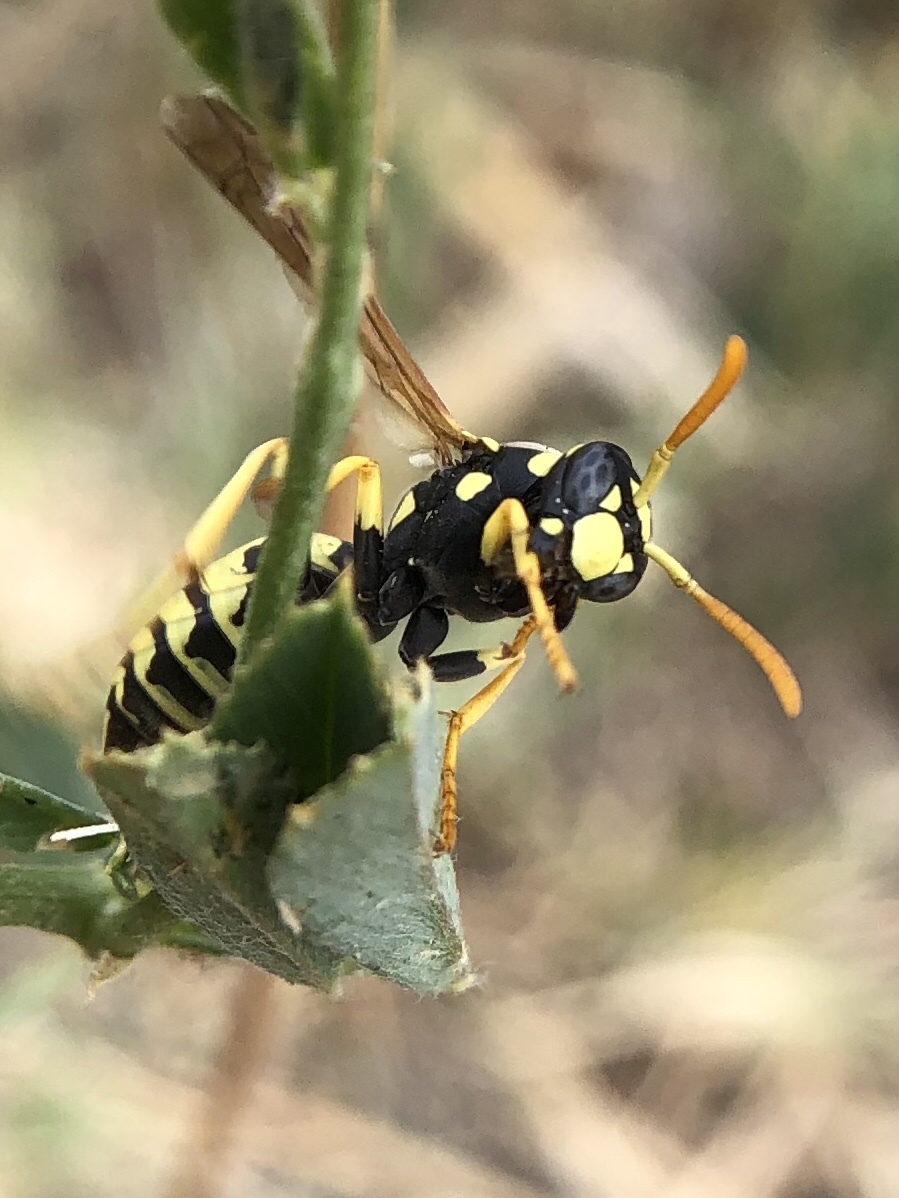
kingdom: Animalia
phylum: Arthropoda
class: Insecta
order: Hymenoptera
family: Eumenidae
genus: Polistes
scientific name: Polistes gallicus
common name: Paper wasp
